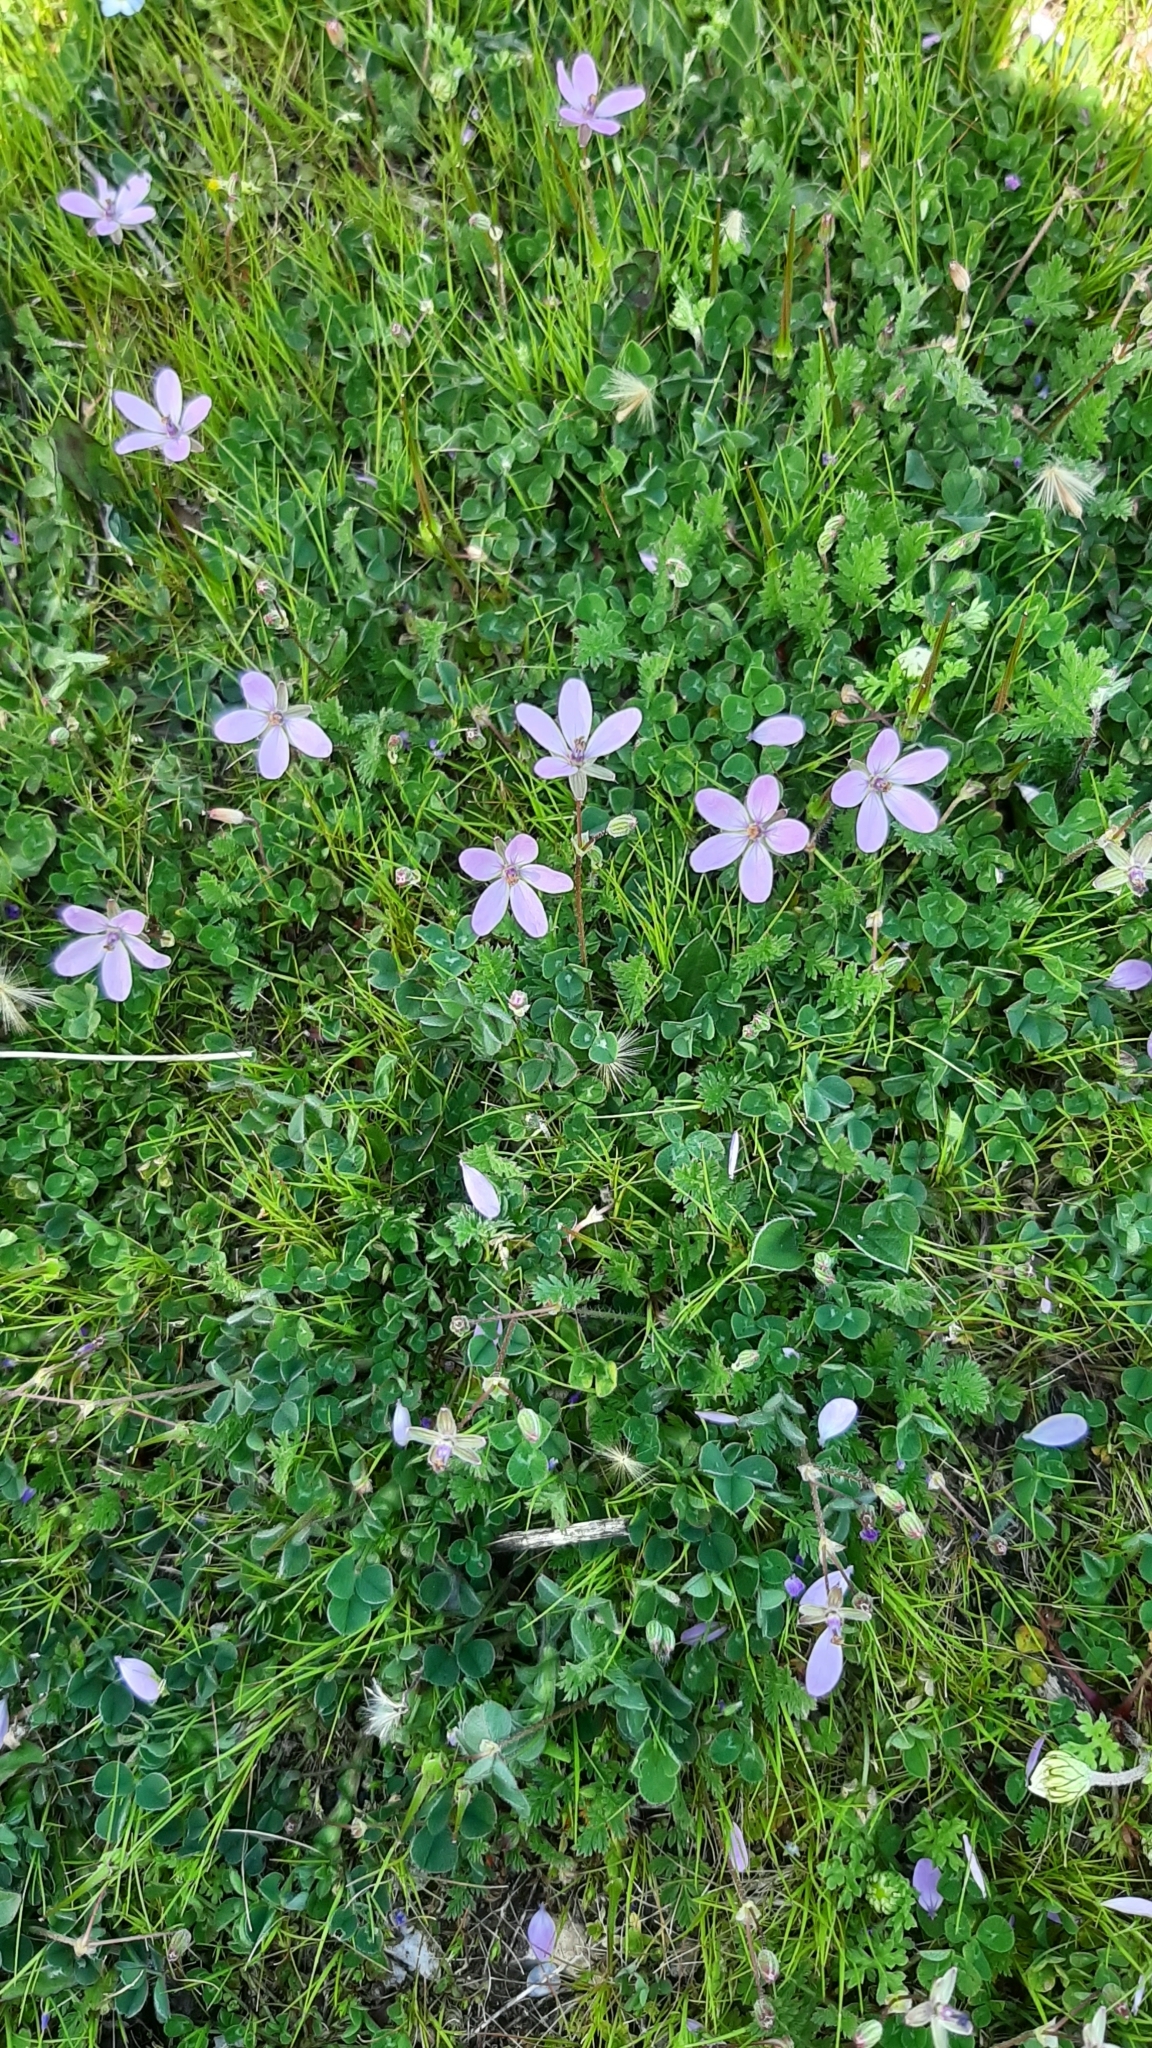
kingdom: Plantae
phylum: Tracheophyta
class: Magnoliopsida
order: Geraniales
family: Geraniaceae
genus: Erodium
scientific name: Erodium cicutarium
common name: Common stork's-bill
